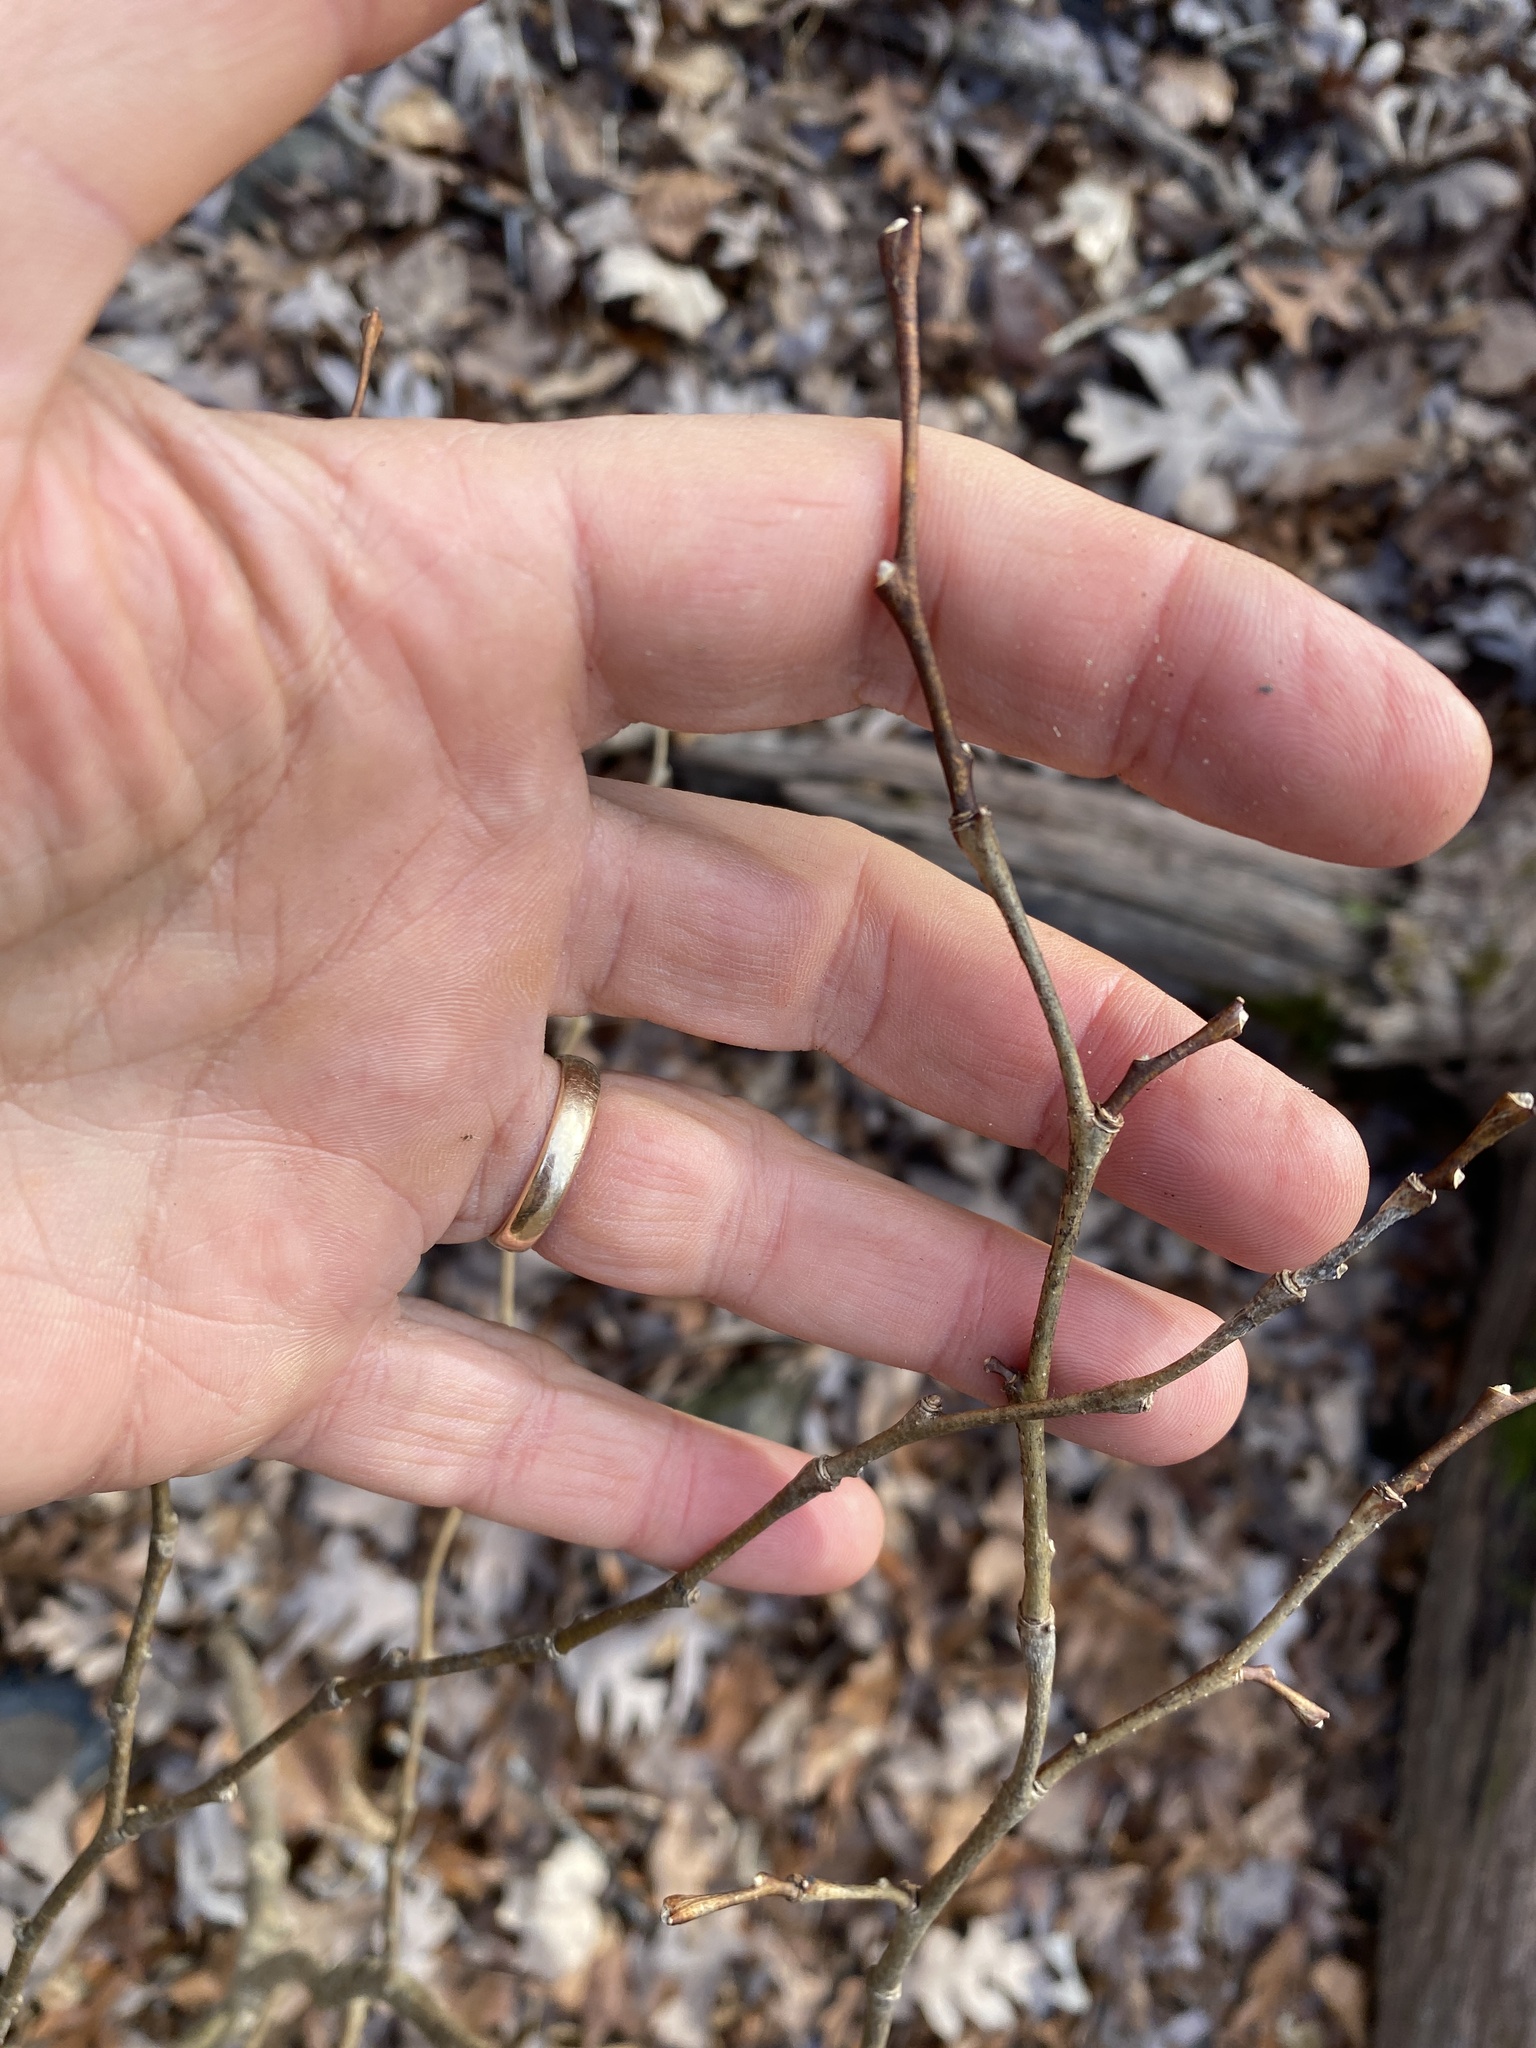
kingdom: Plantae
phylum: Tracheophyta
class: Magnoliopsida
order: Malvales
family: Thymelaeaceae
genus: Dirca
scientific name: Dirca palustris
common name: Leatherwood
